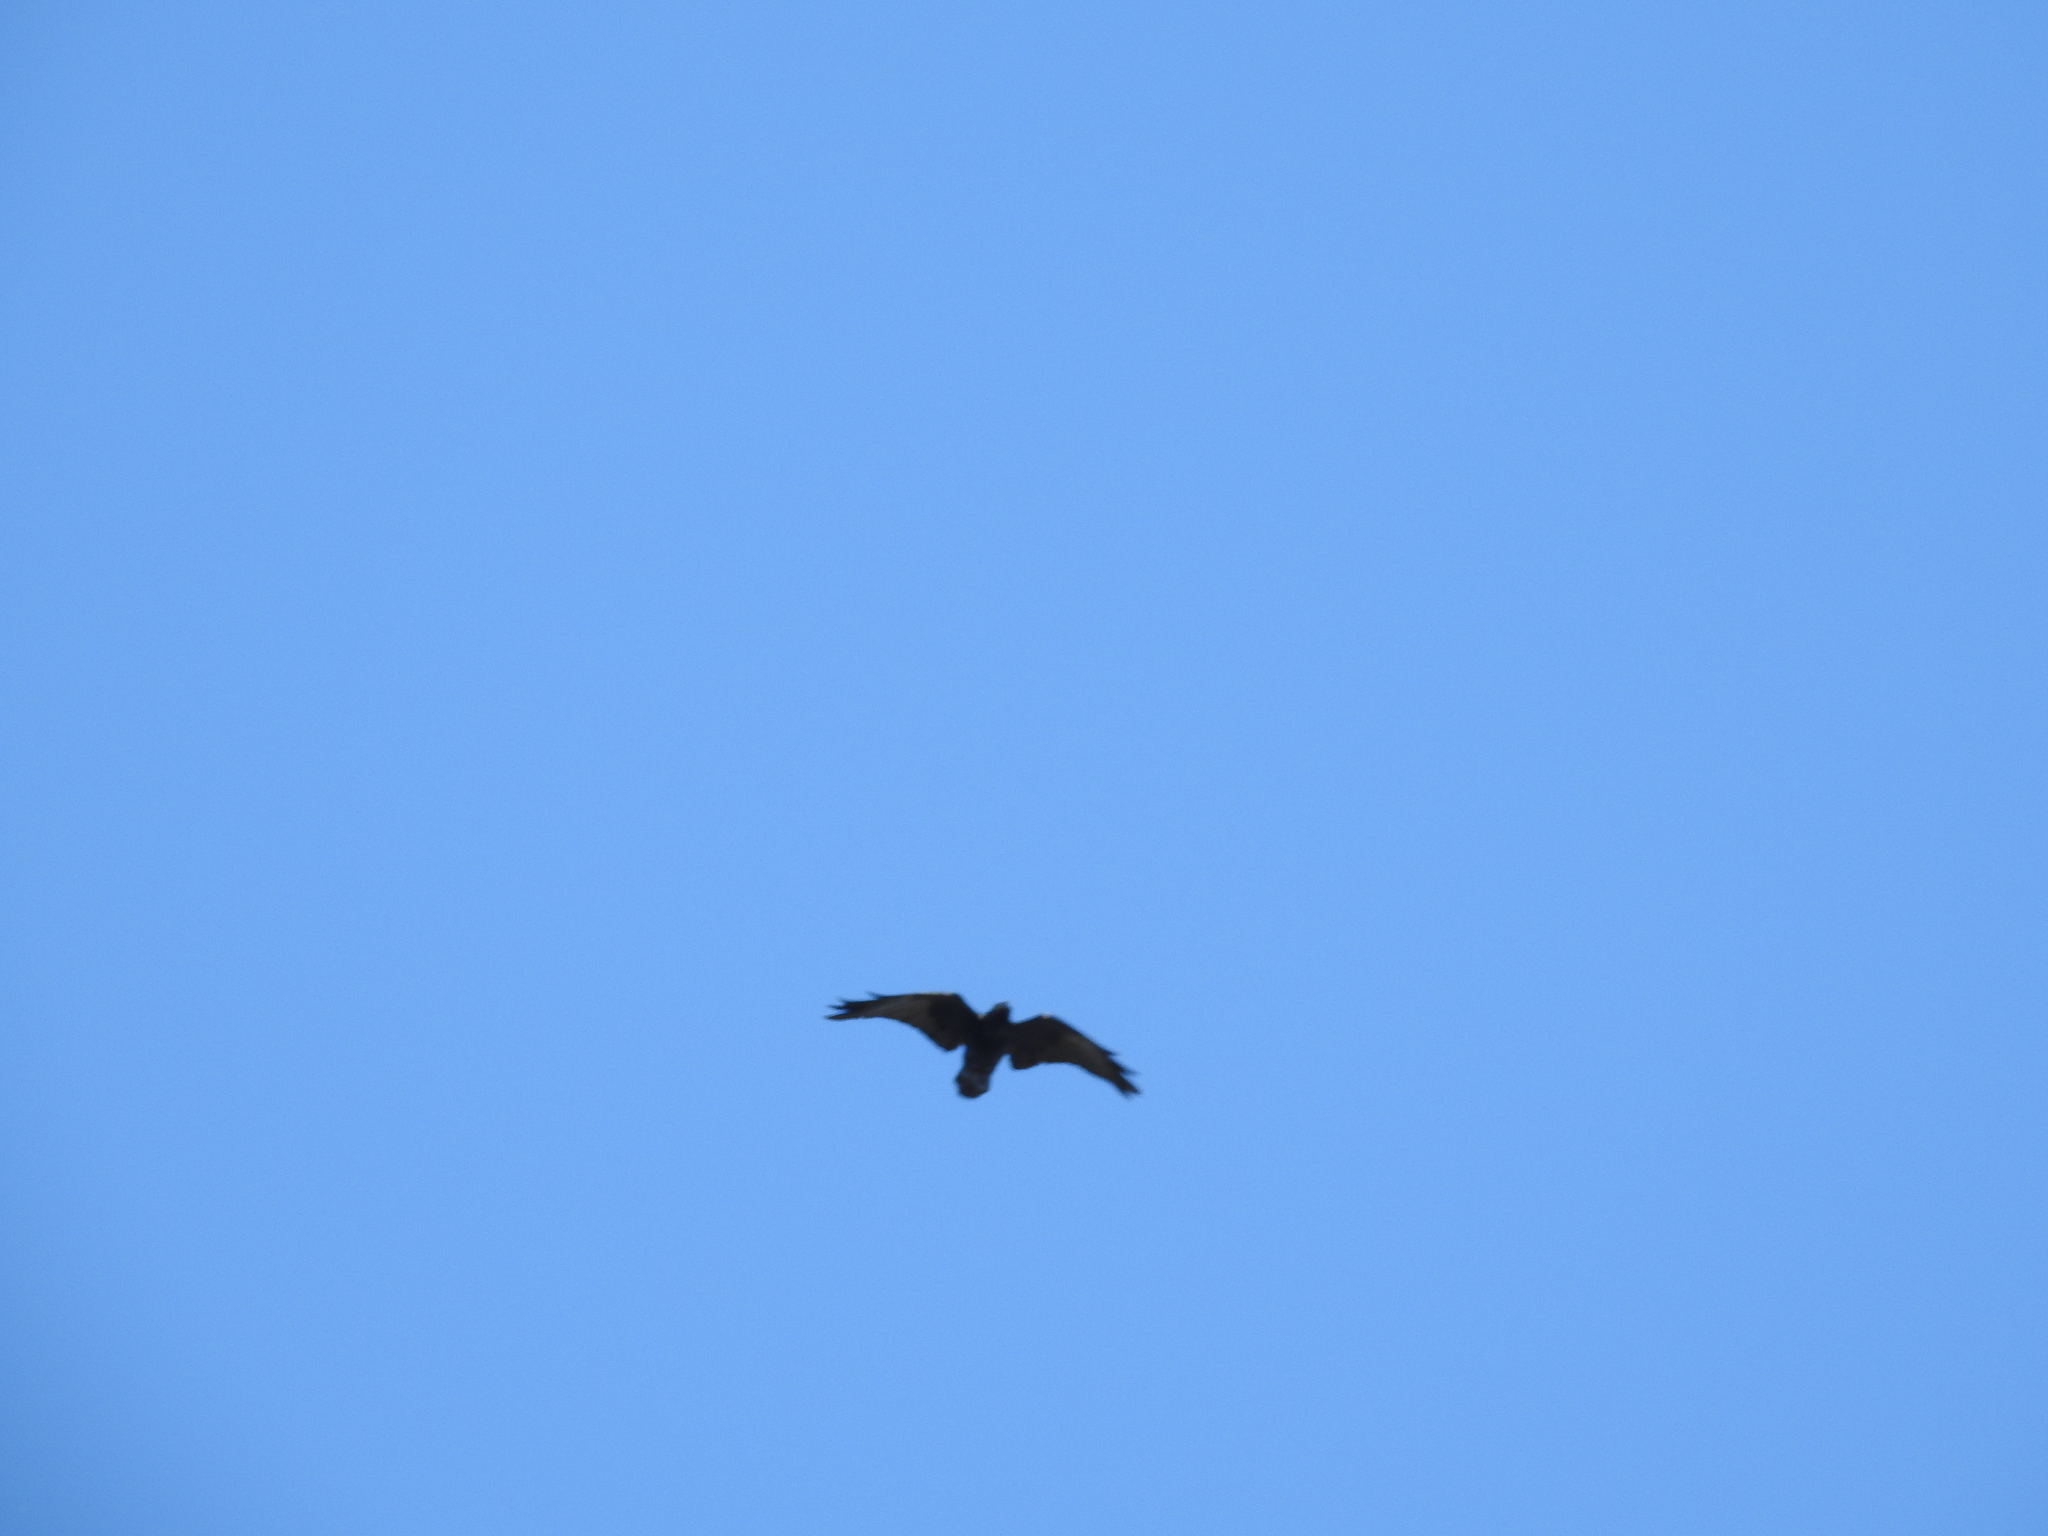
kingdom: Animalia
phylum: Chordata
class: Aves
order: Passeriformes
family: Corvidae
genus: Corvus
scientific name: Corvus corax
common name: Common raven
